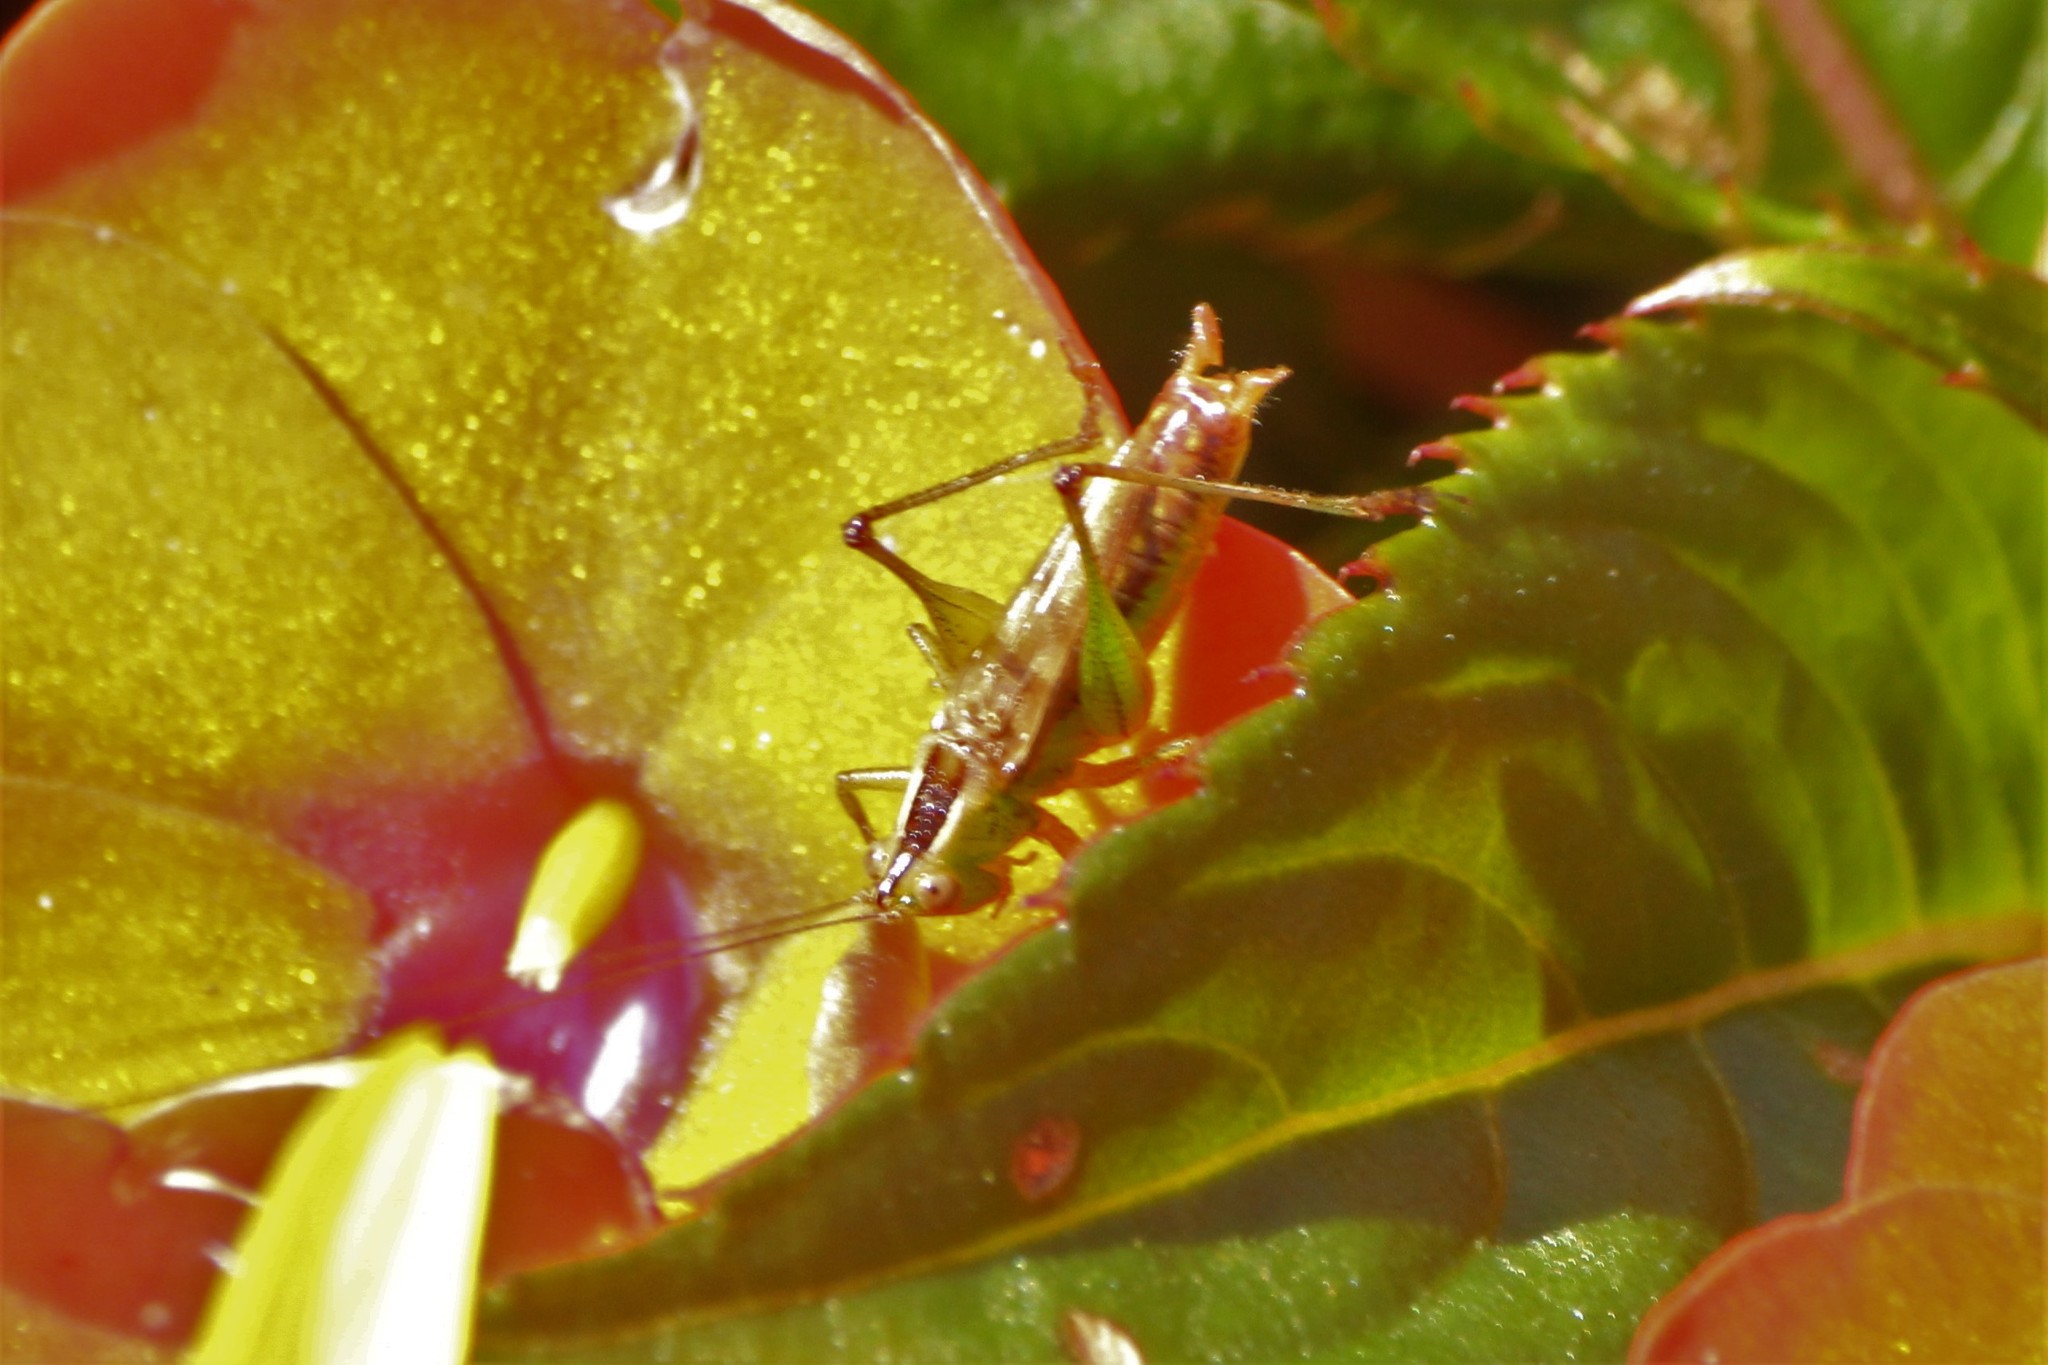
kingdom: Animalia
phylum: Arthropoda
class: Insecta
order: Orthoptera
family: Tettigoniidae
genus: Conocephalus
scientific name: Conocephalus brevipennis
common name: Short-winged meadow katydid
